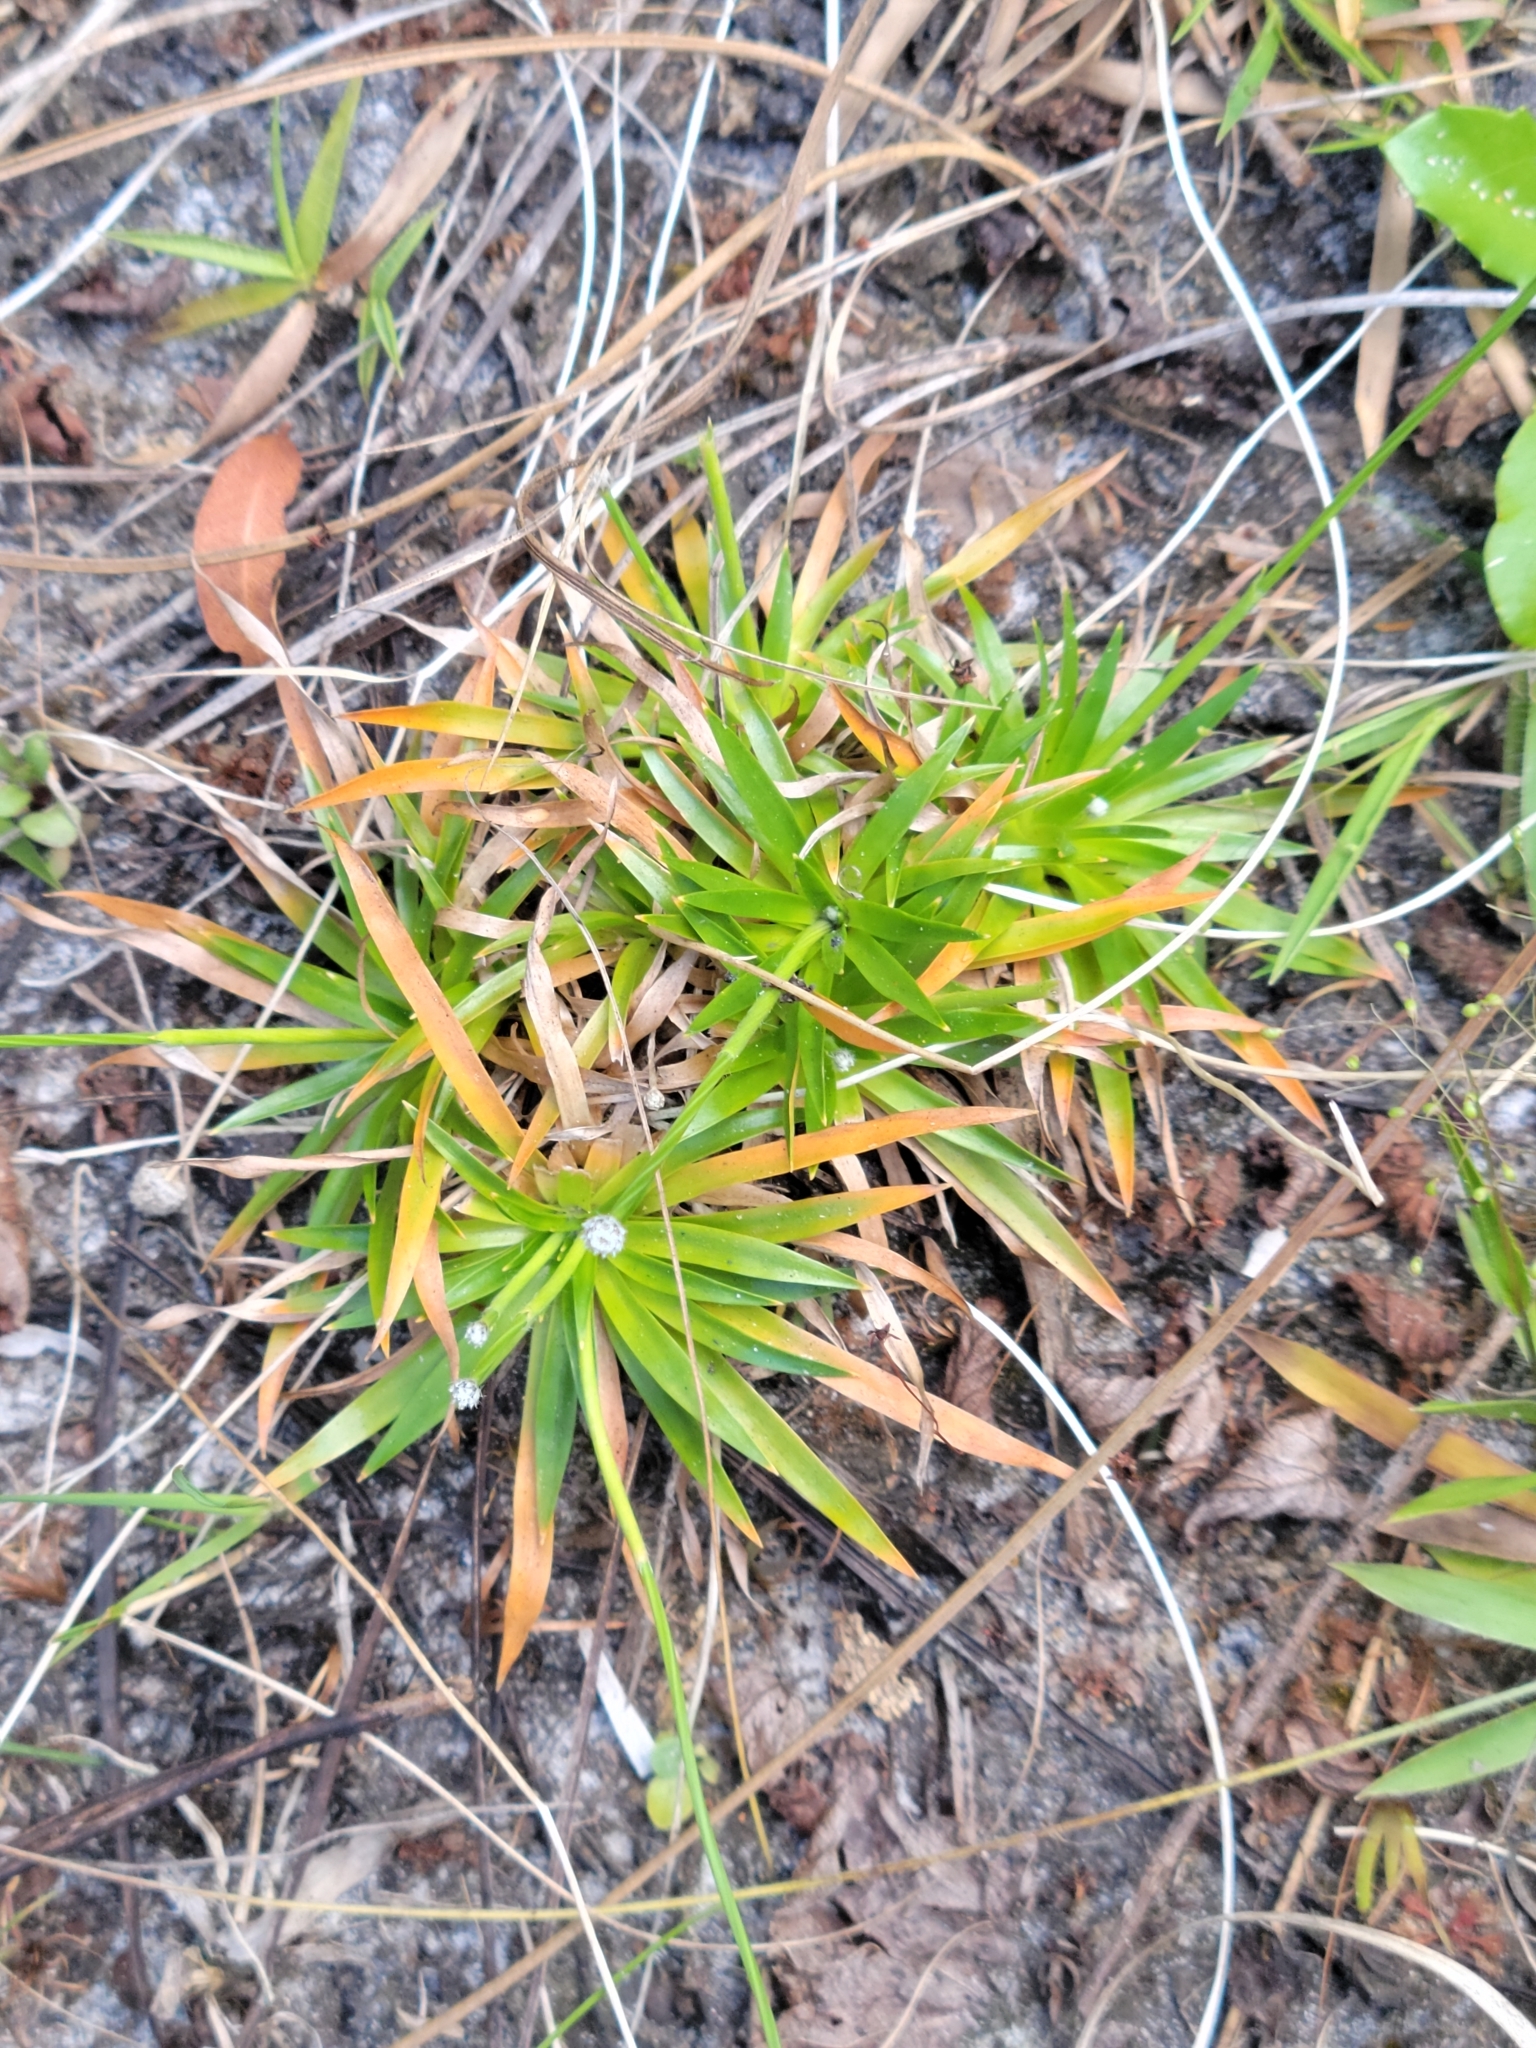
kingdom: Plantae
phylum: Tracheophyta
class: Liliopsida
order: Poales
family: Eriocaulaceae
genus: Paepalanthus
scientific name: Paepalanthus anceps
